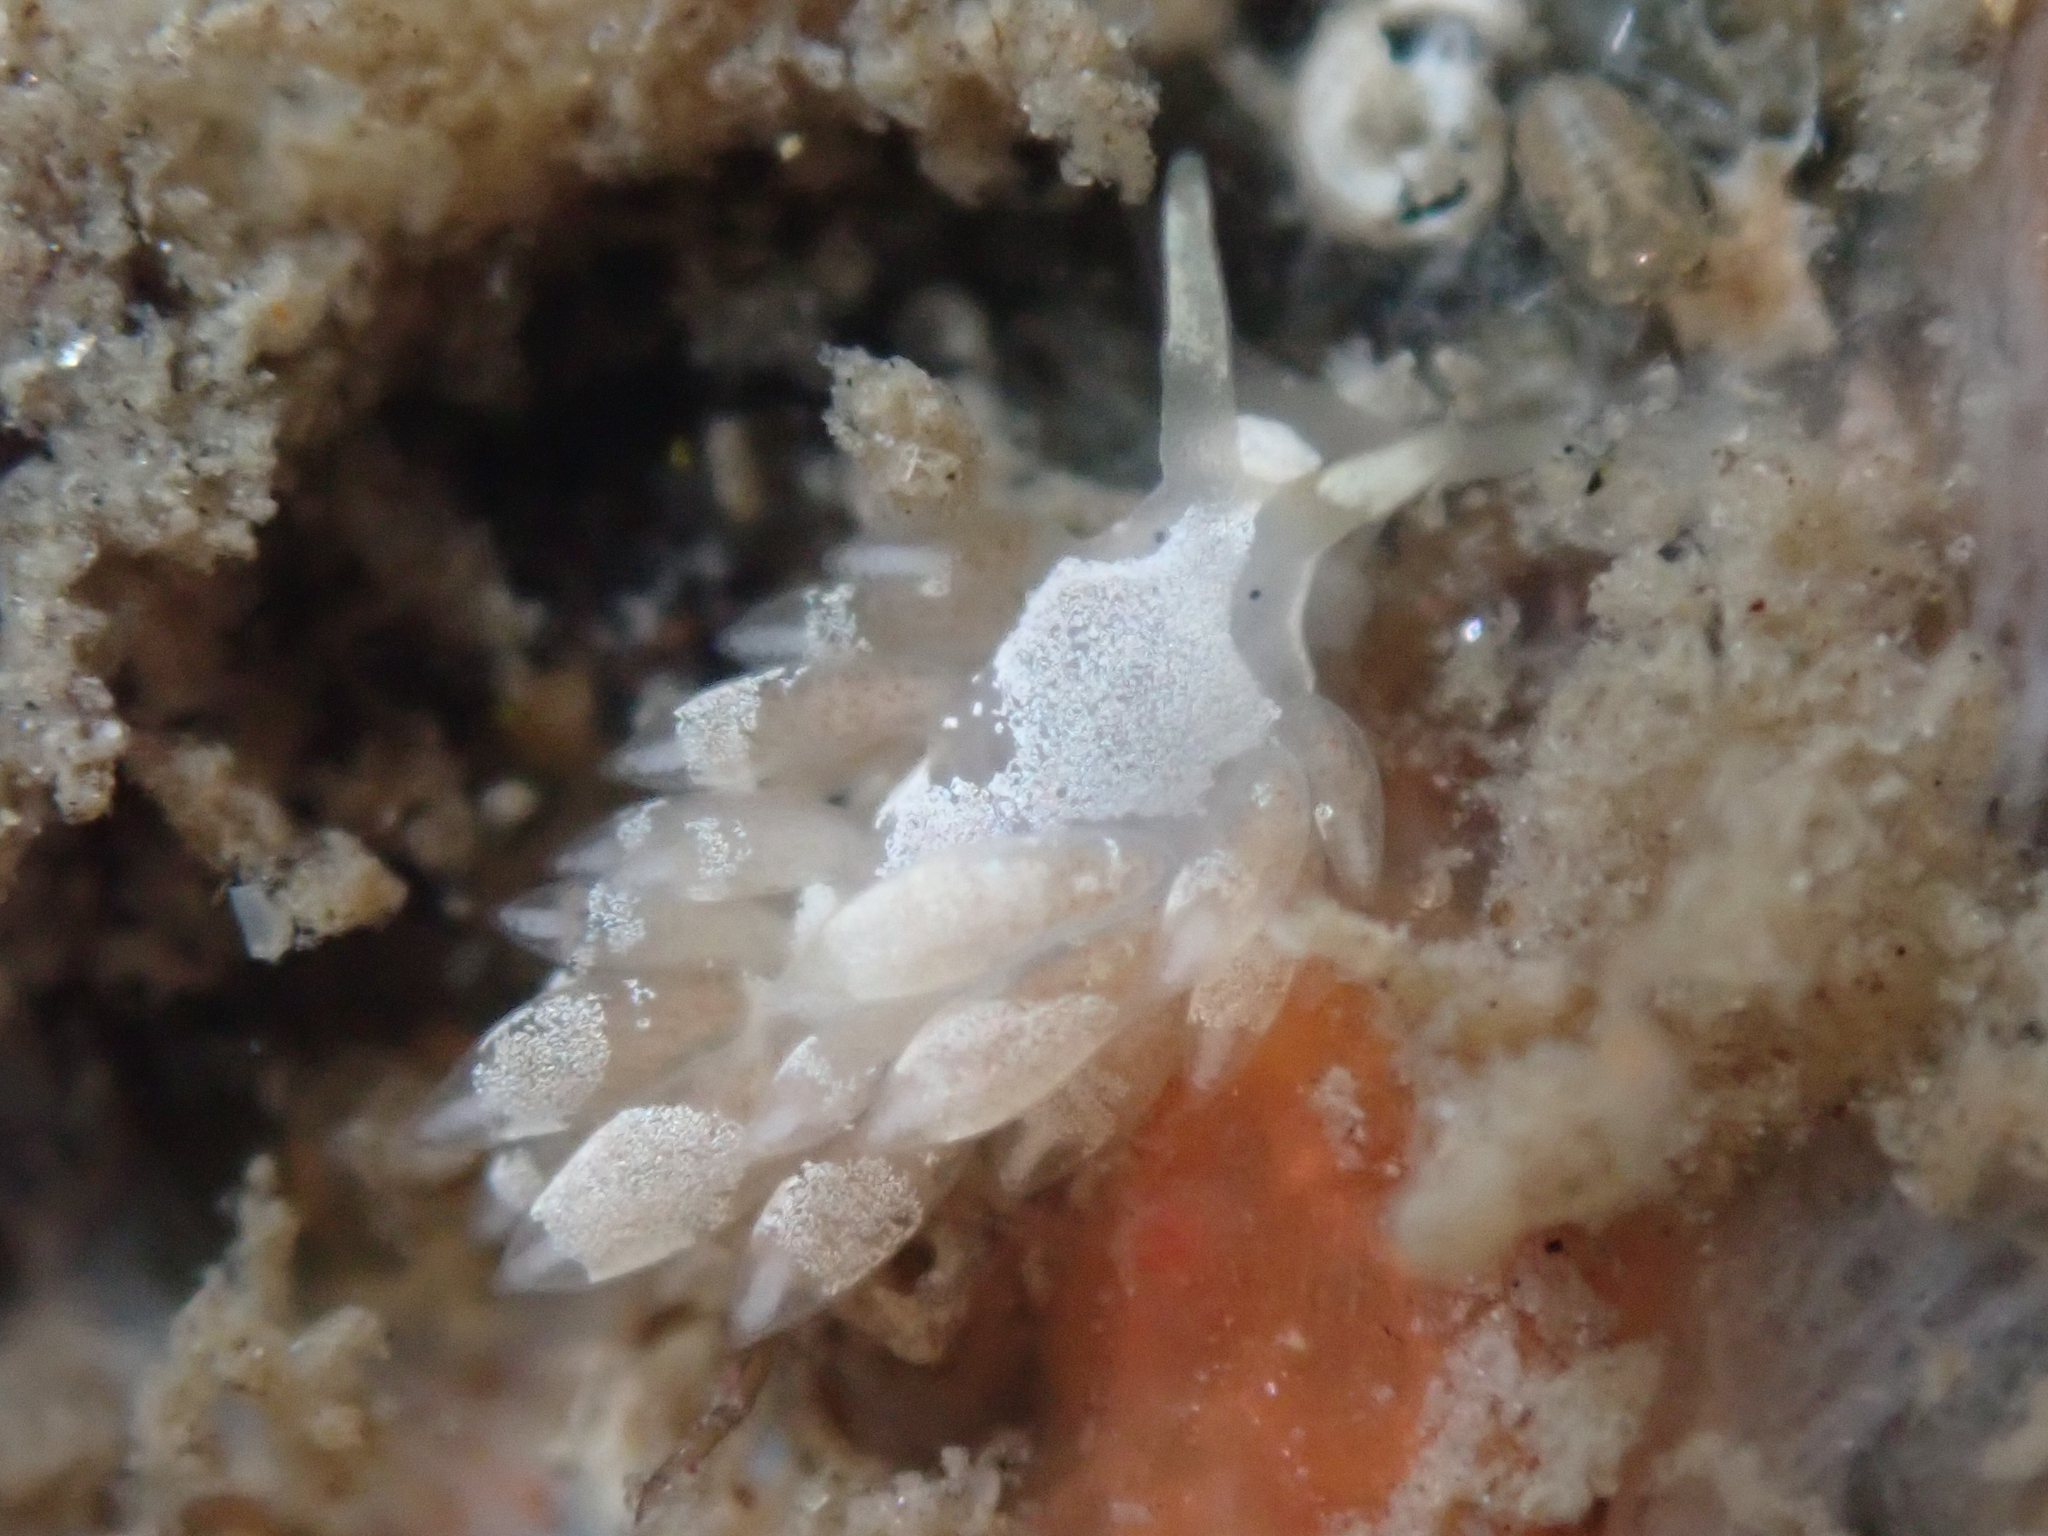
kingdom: Animalia
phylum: Mollusca
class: Gastropoda
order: Nudibranchia
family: Trinchesiidae
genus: Trinchesia
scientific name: Trinchesia albocrusta
